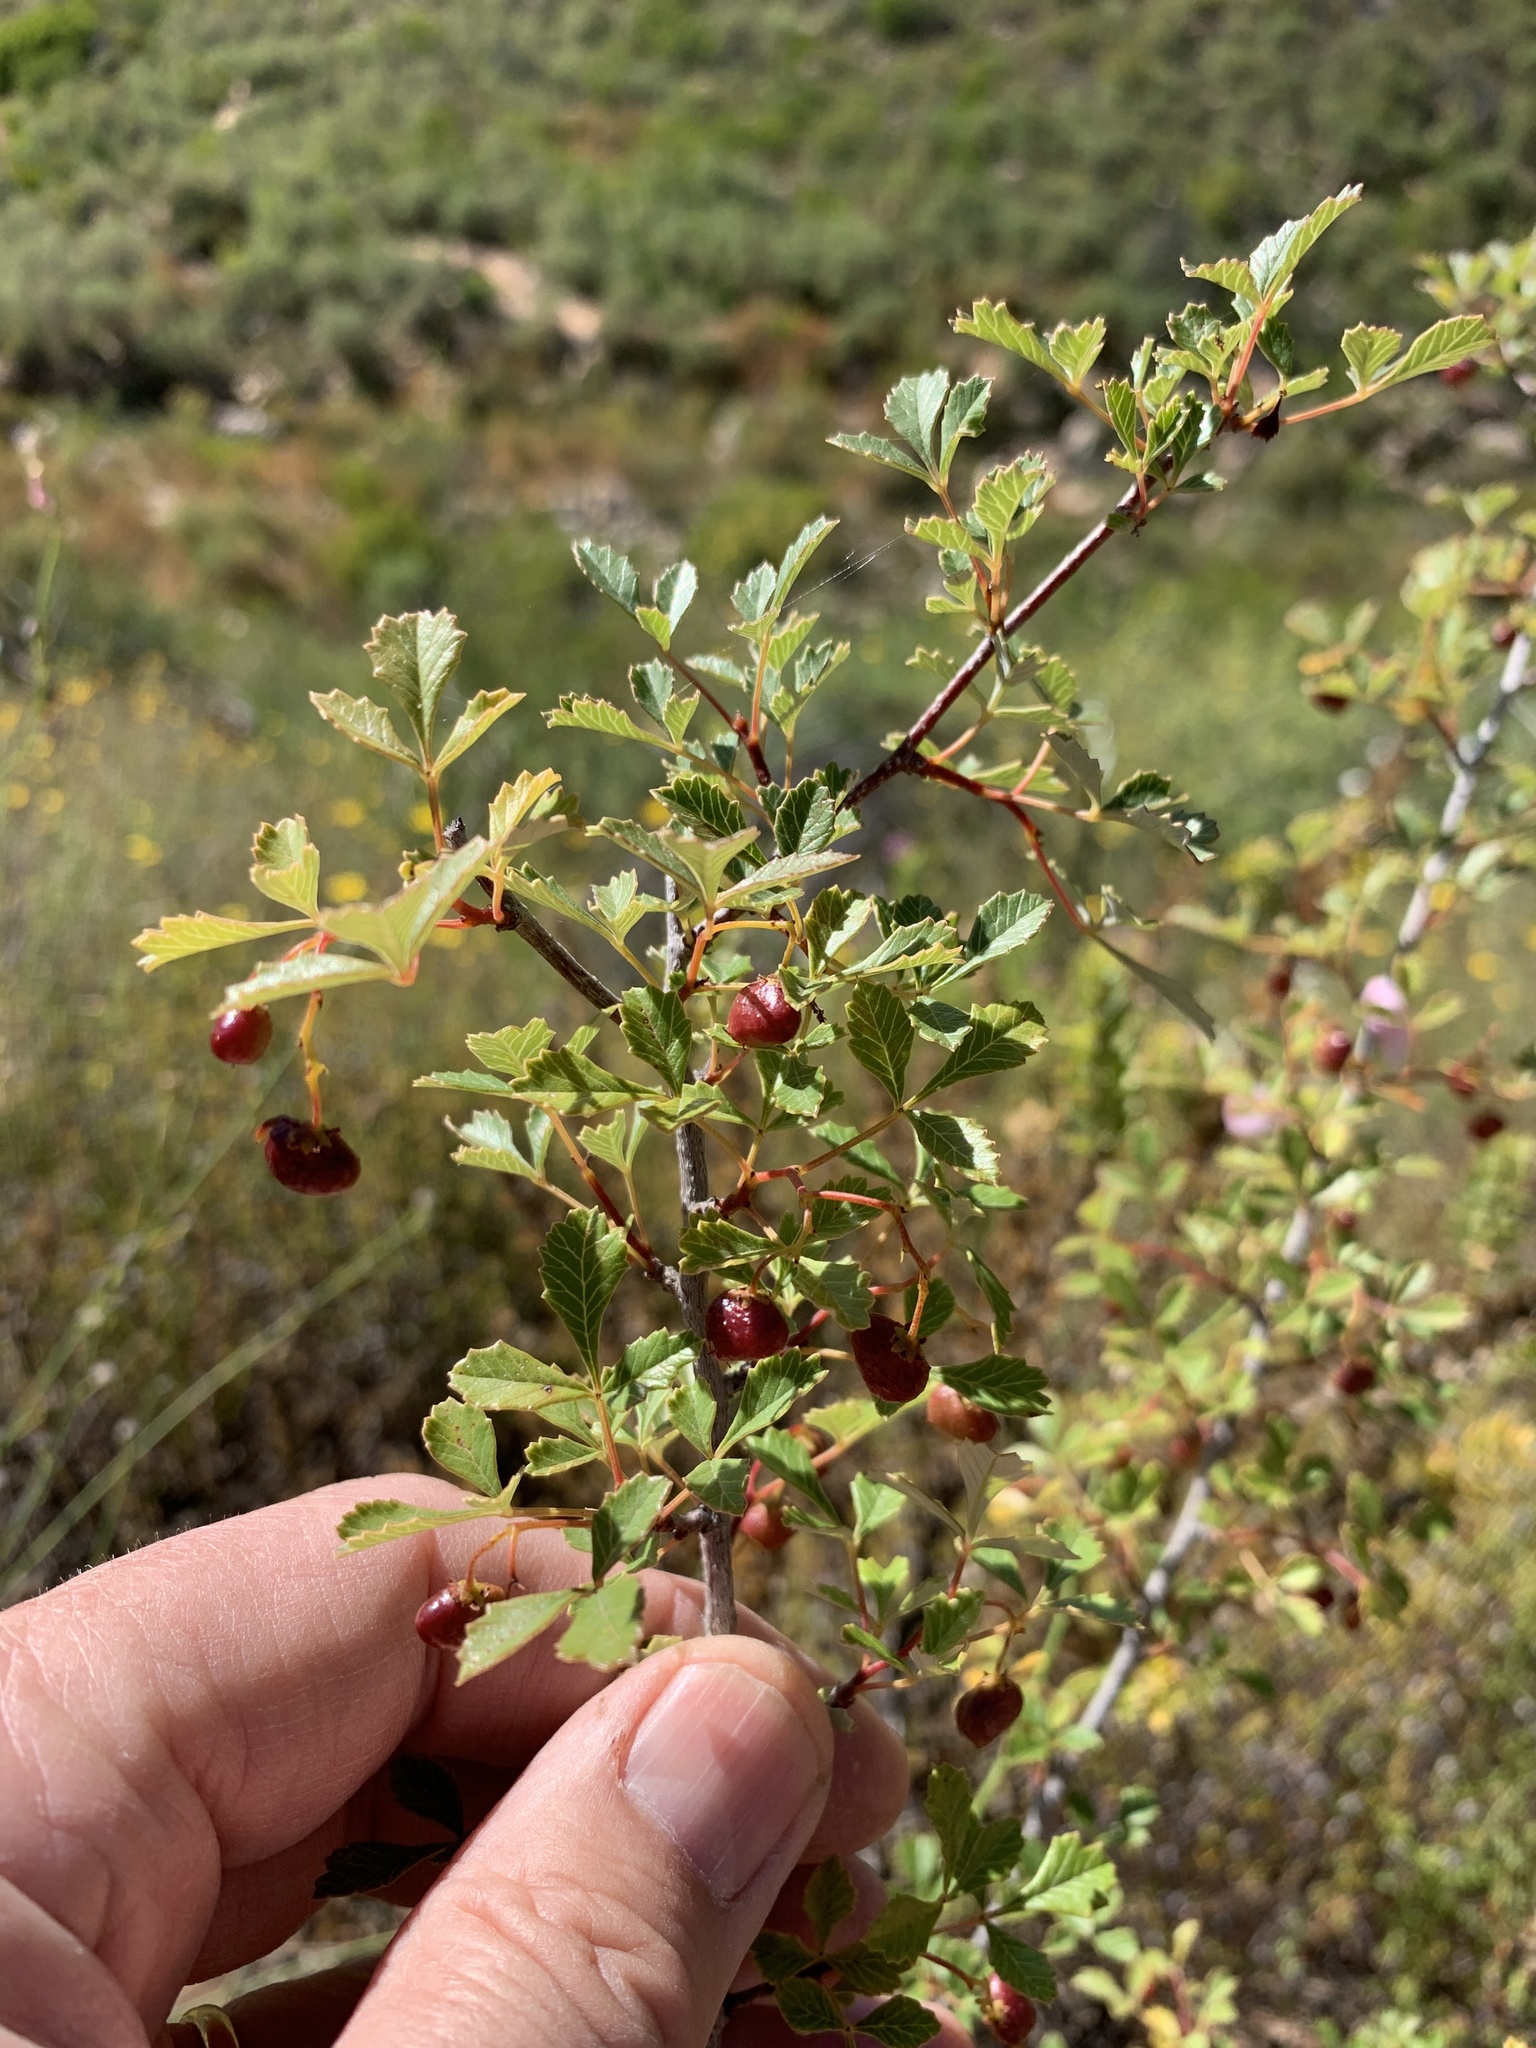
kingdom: Plantae
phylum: Tracheophyta
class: Magnoliopsida
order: Sapindales
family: Anacardiaceae
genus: Searsia
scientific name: Searsia dissecta
